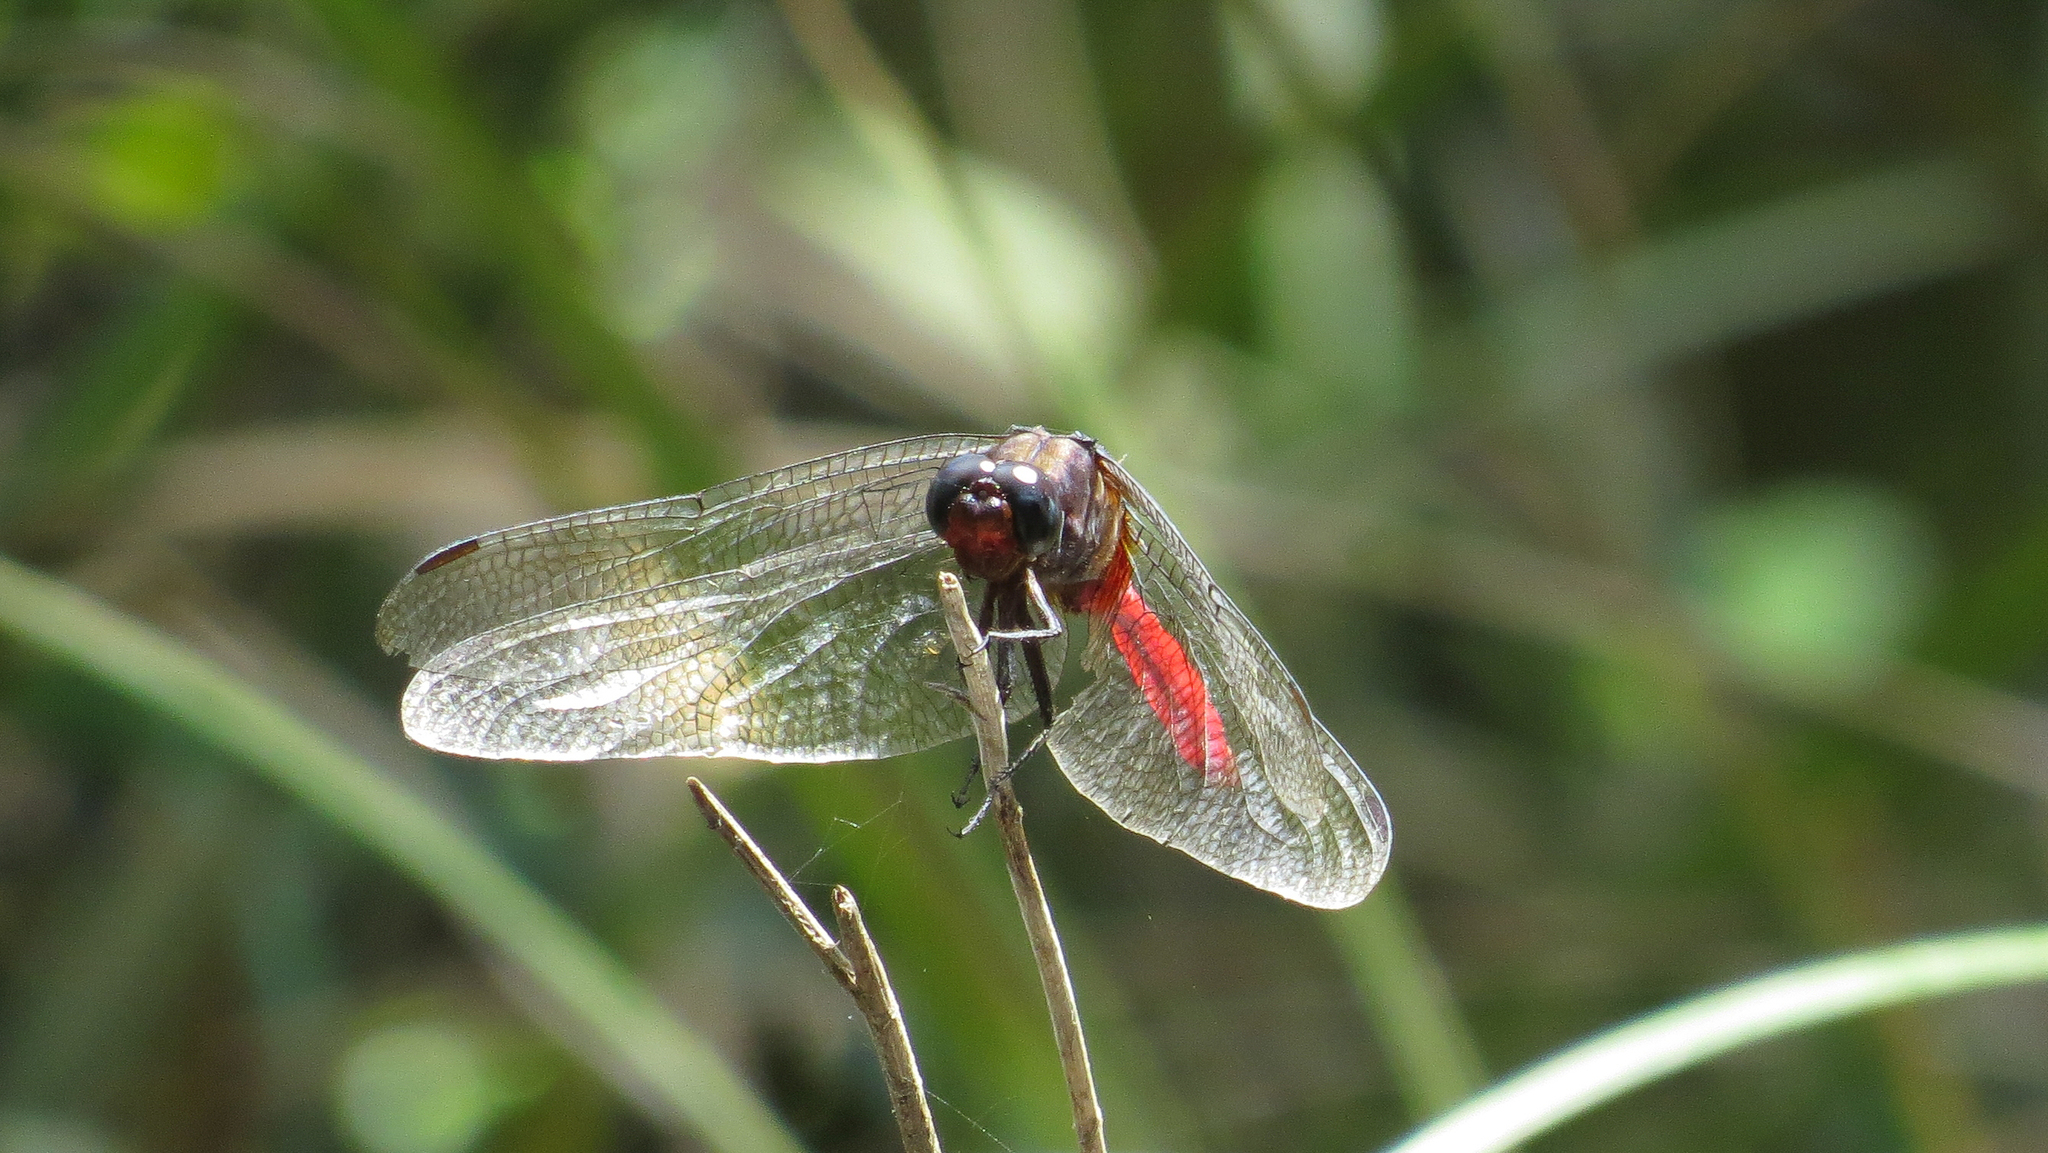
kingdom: Animalia
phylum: Arthropoda
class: Insecta
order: Odonata
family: Libellulidae
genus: Orthetrum
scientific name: Orthetrum villosovittatum
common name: Firery skimmer
